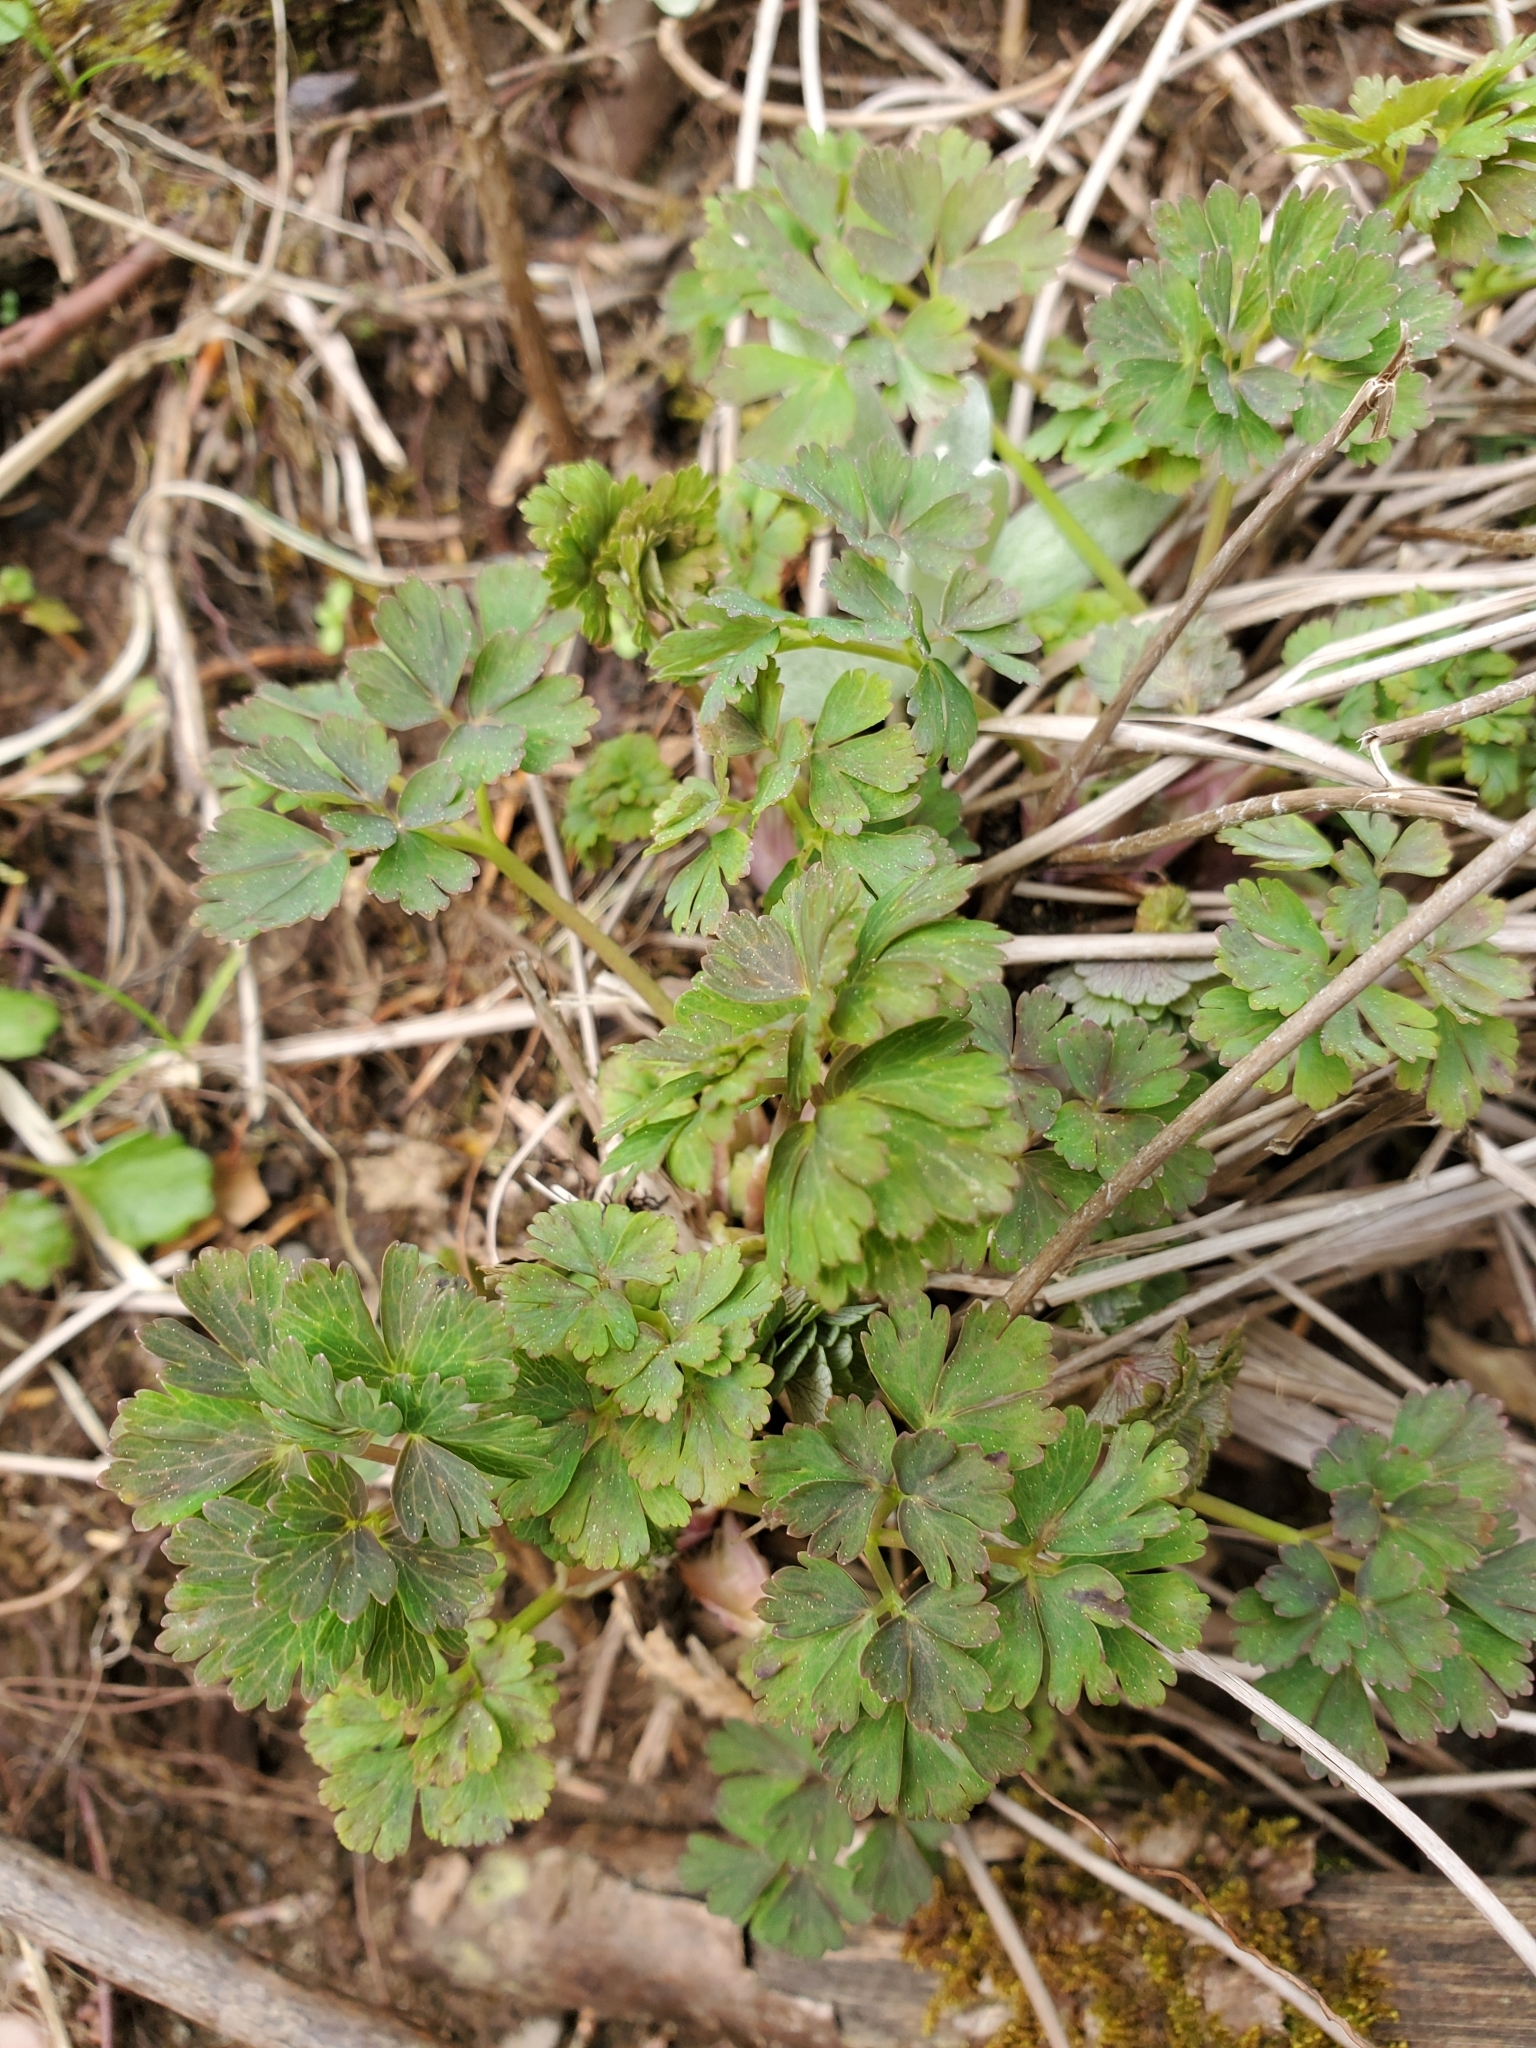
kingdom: Plantae
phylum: Tracheophyta
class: Magnoliopsida
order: Ranunculales
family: Ranunculaceae
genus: Aquilegia
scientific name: Aquilegia formosa
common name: Sitka columbine
